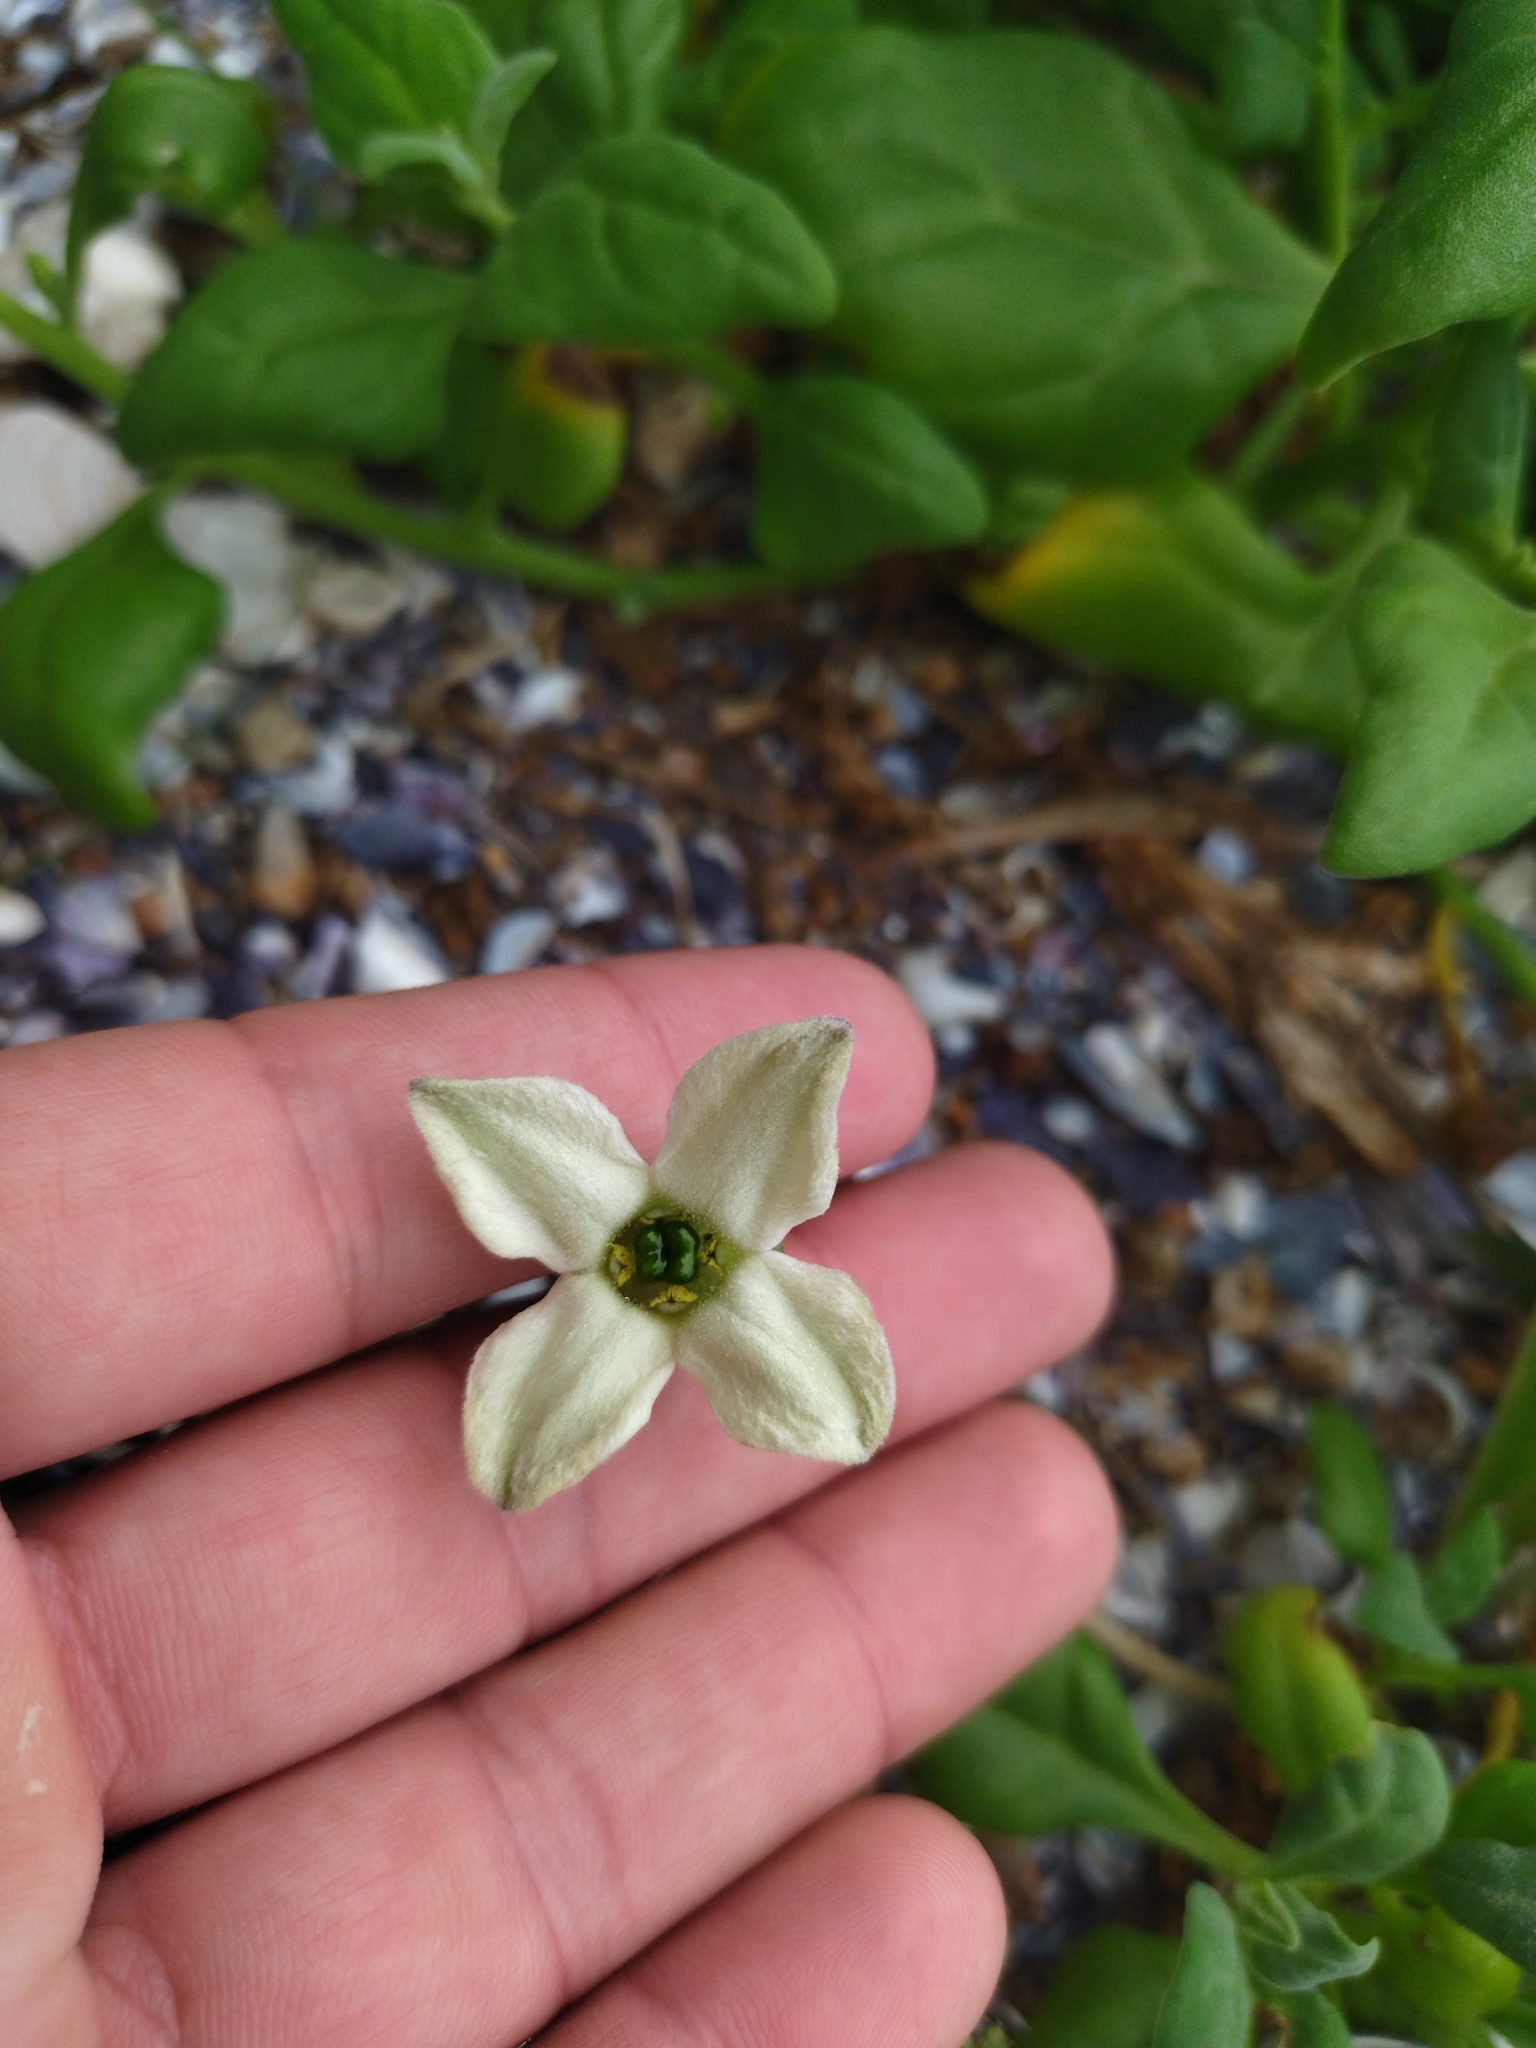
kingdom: Plantae
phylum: Tracheophyta
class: Magnoliopsida
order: Solanales
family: Solanaceae
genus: Jaborosa
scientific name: Jaborosa runcinata
